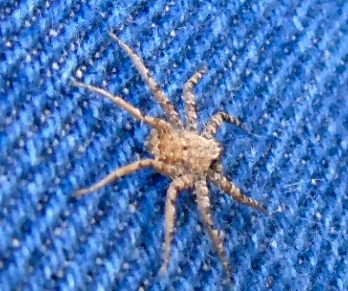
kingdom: Animalia
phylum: Arthropoda
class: Arachnida
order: Araneae
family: Selenopidae
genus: Selenops
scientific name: Selenops
